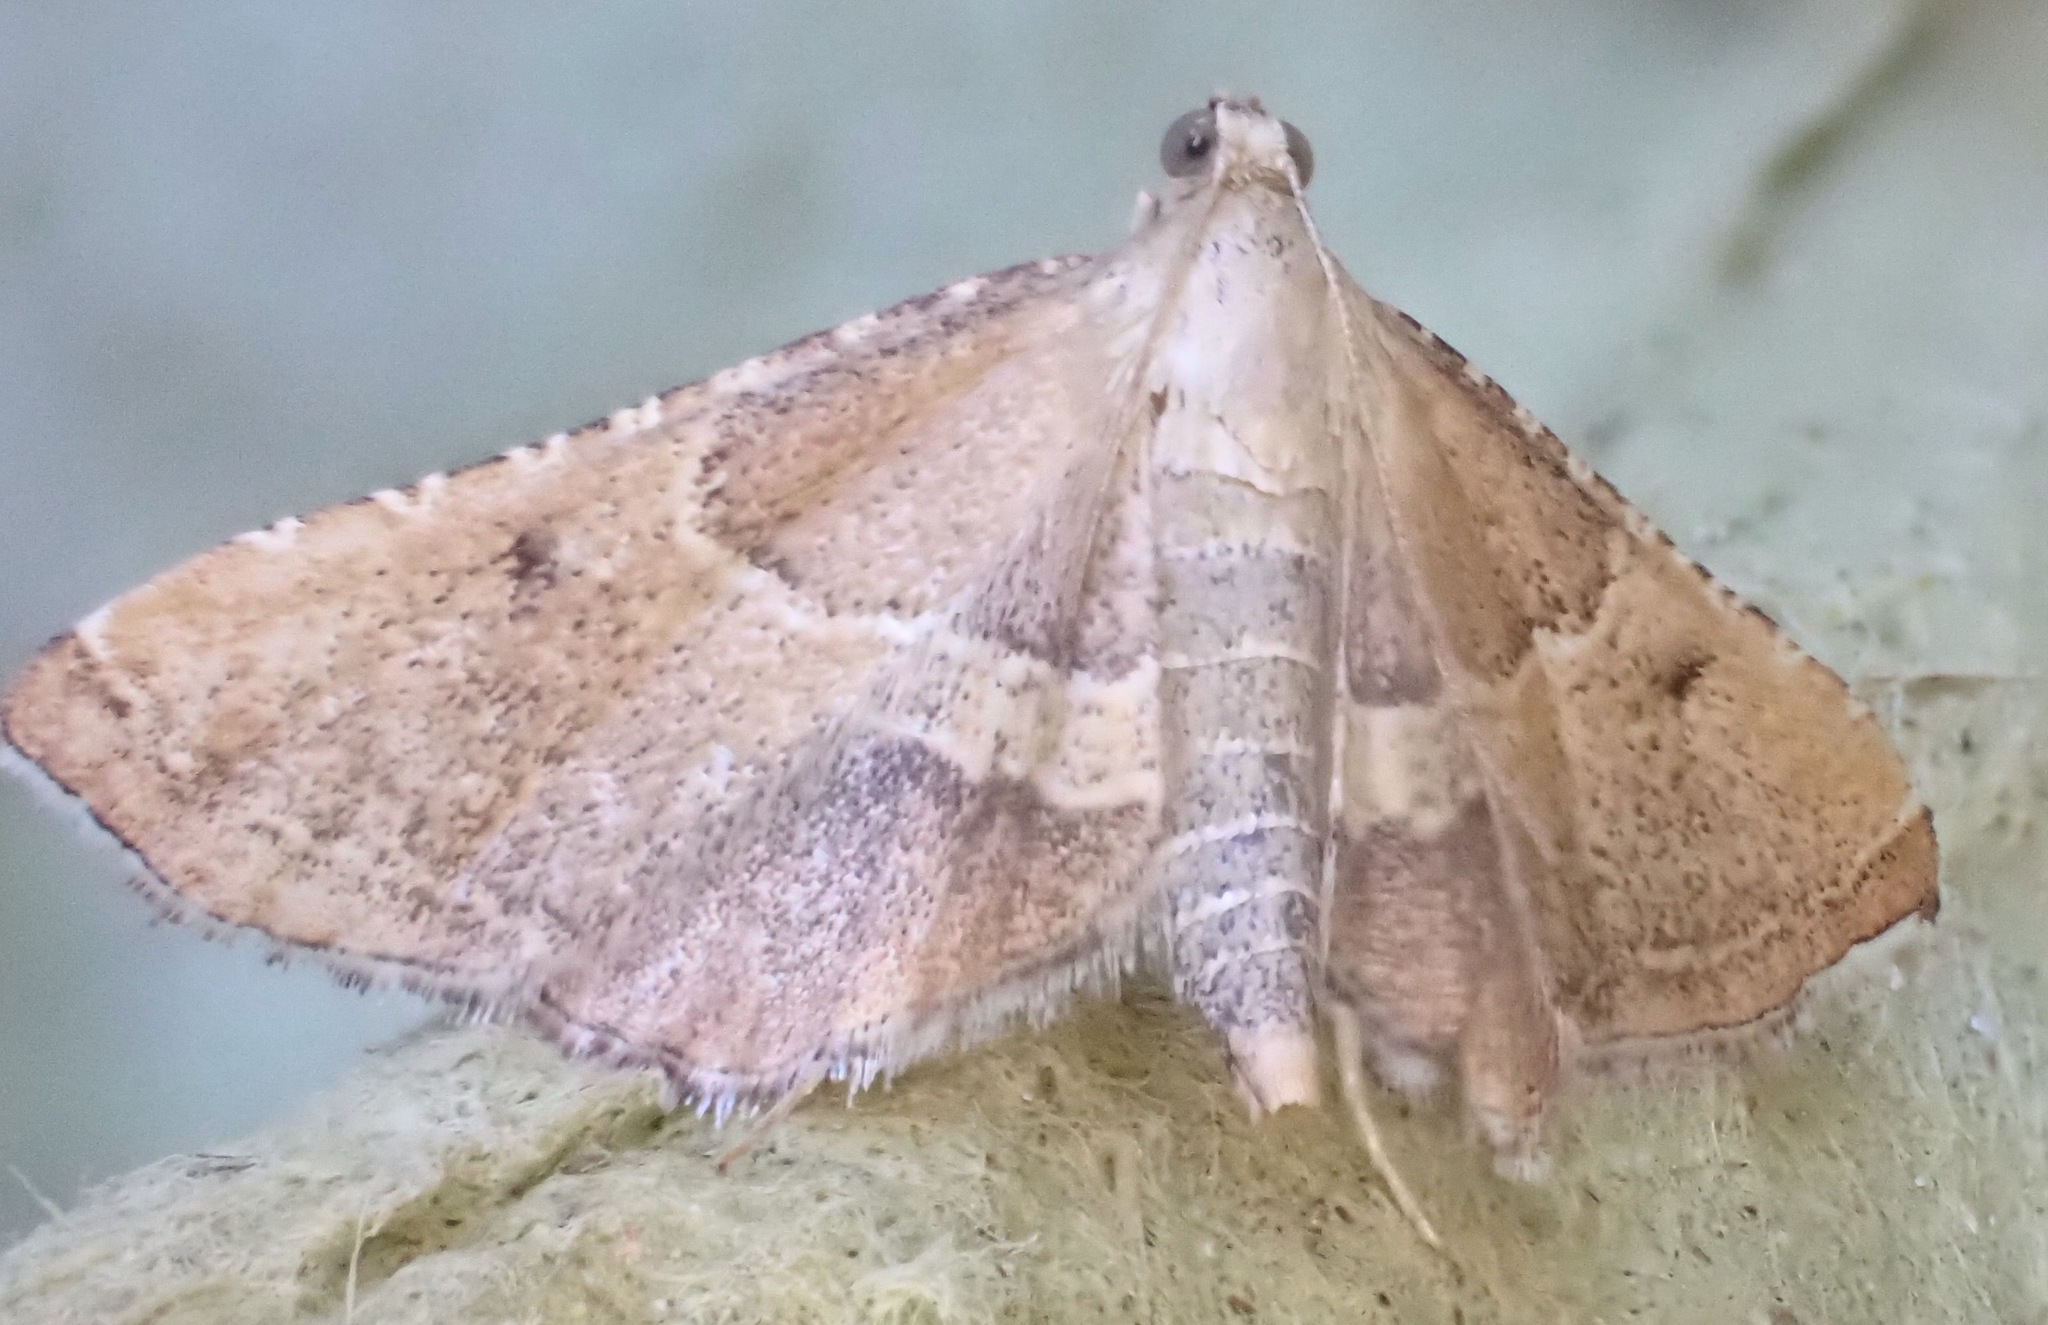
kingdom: Animalia
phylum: Arthropoda
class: Insecta
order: Lepidoptera
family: Pyralidae
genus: Endotricha
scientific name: Endotricha flammealis
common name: Rosy tabby
